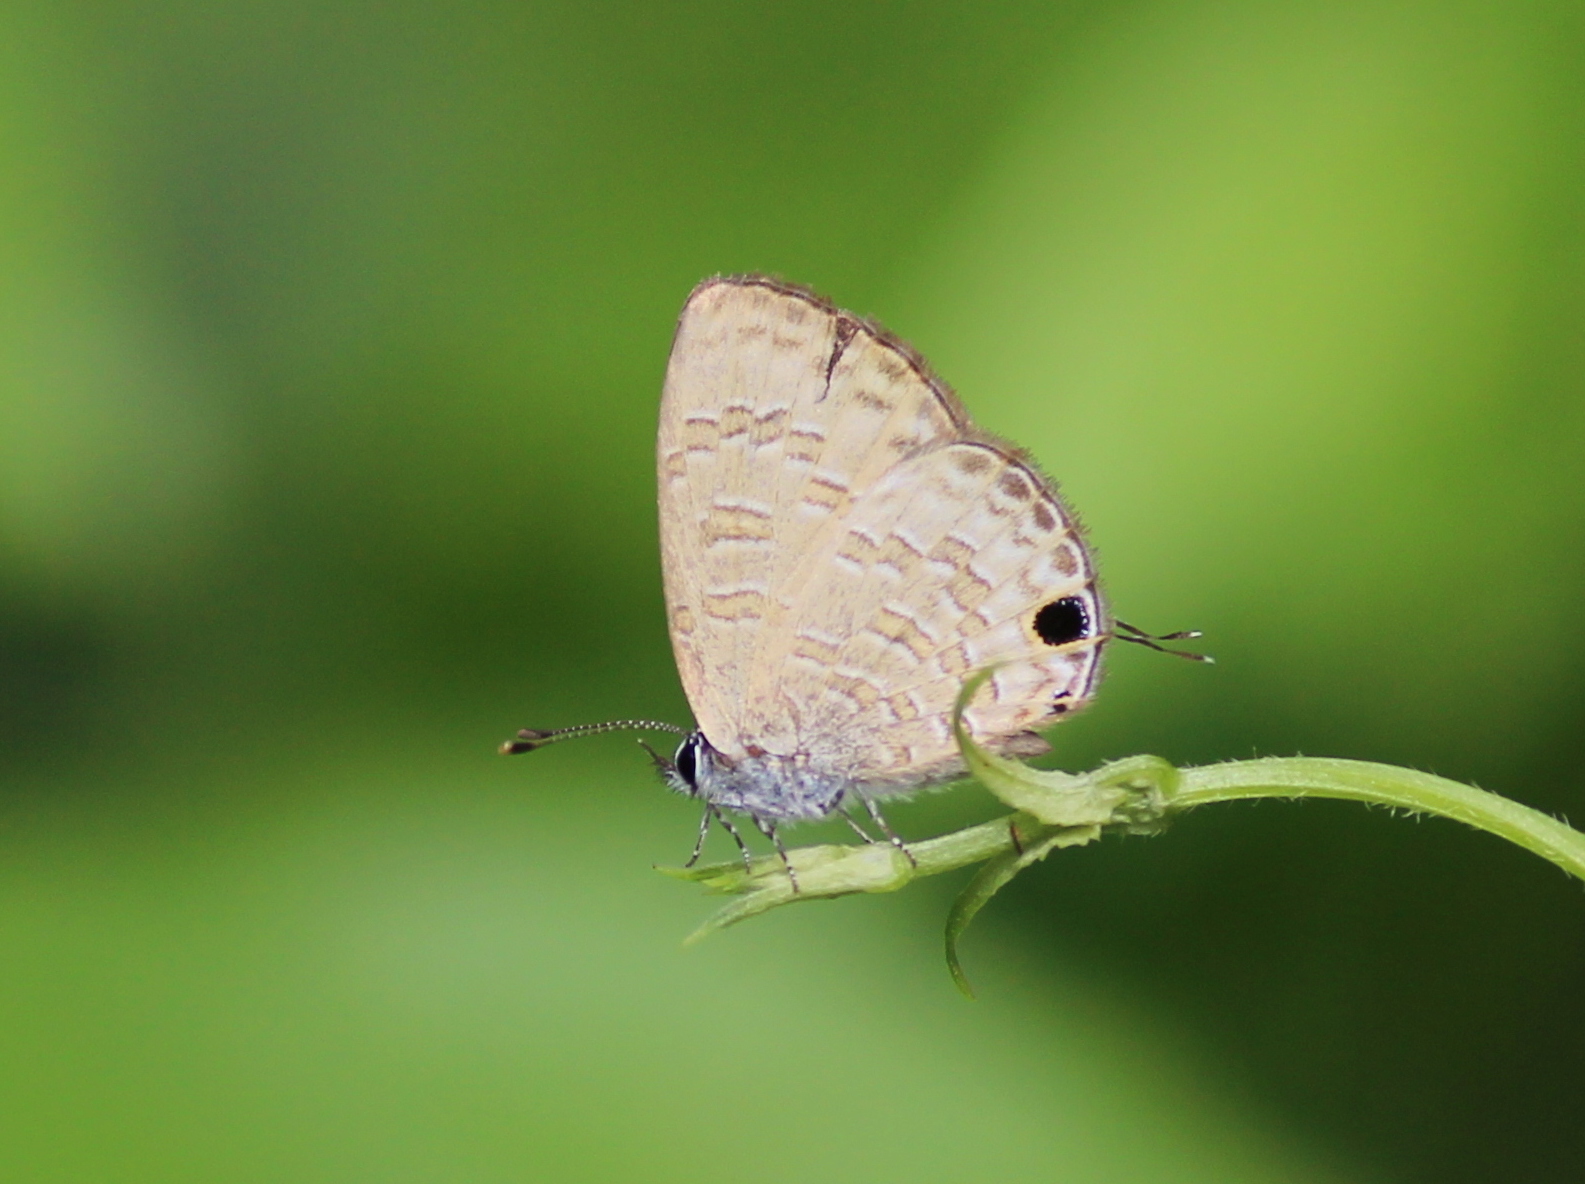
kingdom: Animalia
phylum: Arthropoda
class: Insecta
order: Lepidoptera
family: Lycaenidae
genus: Prosotas
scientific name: Prosotas nora
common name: Common line blue
